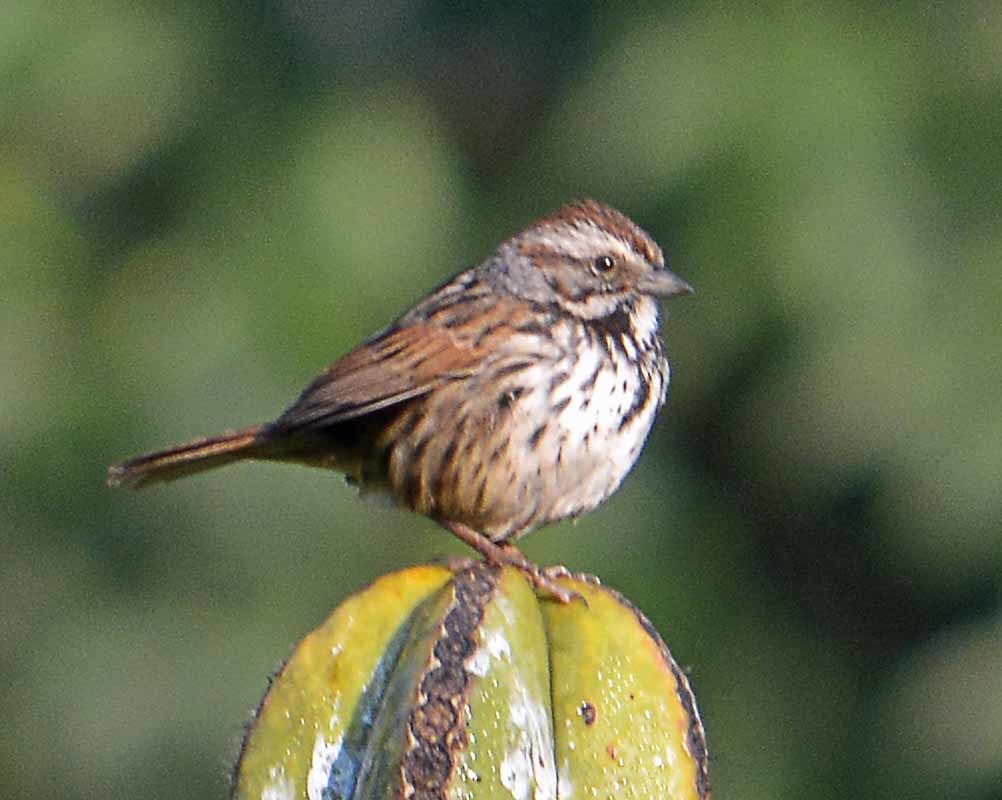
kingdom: Animalia
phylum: Chordata
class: Aves
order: Passeriformes
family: Passerellidae
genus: Melospiza
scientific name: Melospiza melodia
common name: Song sparrow
